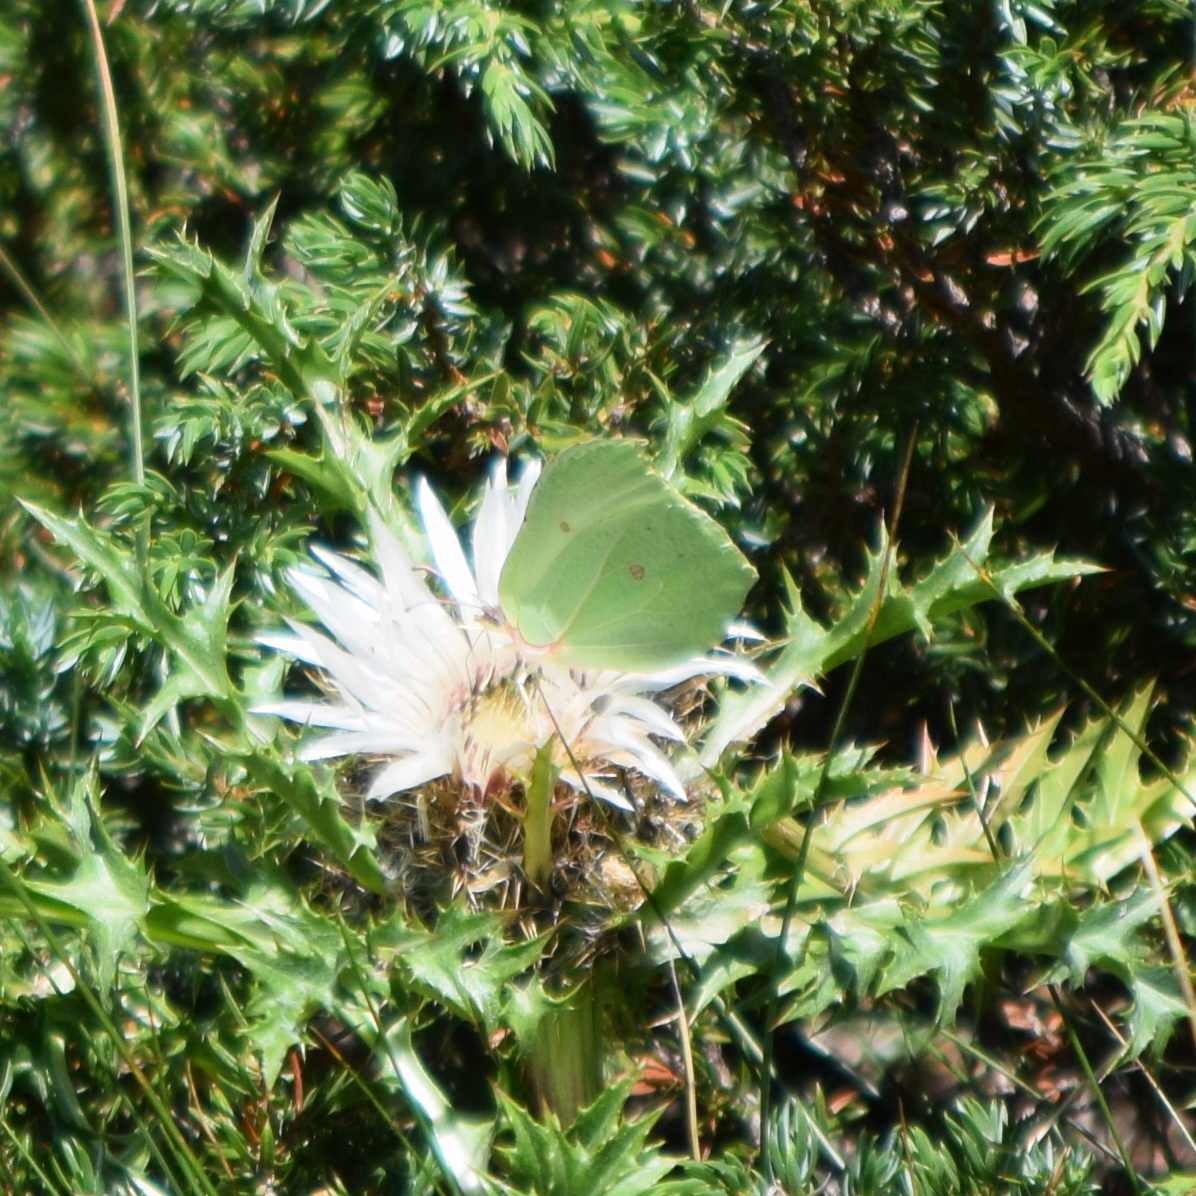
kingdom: Animalia
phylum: Arthropoda
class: Insecta
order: Lepidoptera
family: Pieridae
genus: Gonepteryx
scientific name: Gonepteryx rhamni
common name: Brimstone
